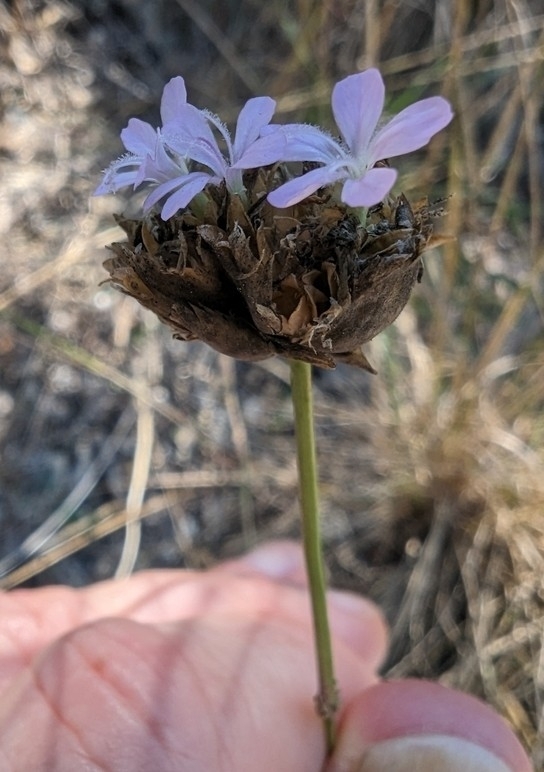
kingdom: Plantae
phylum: Tracheophyta
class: Magnoliopsida
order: Caryophyllales
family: Caryophyllaceae
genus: Petrorhagia
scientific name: Petrorhagia prolifera
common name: Proliferous pink
